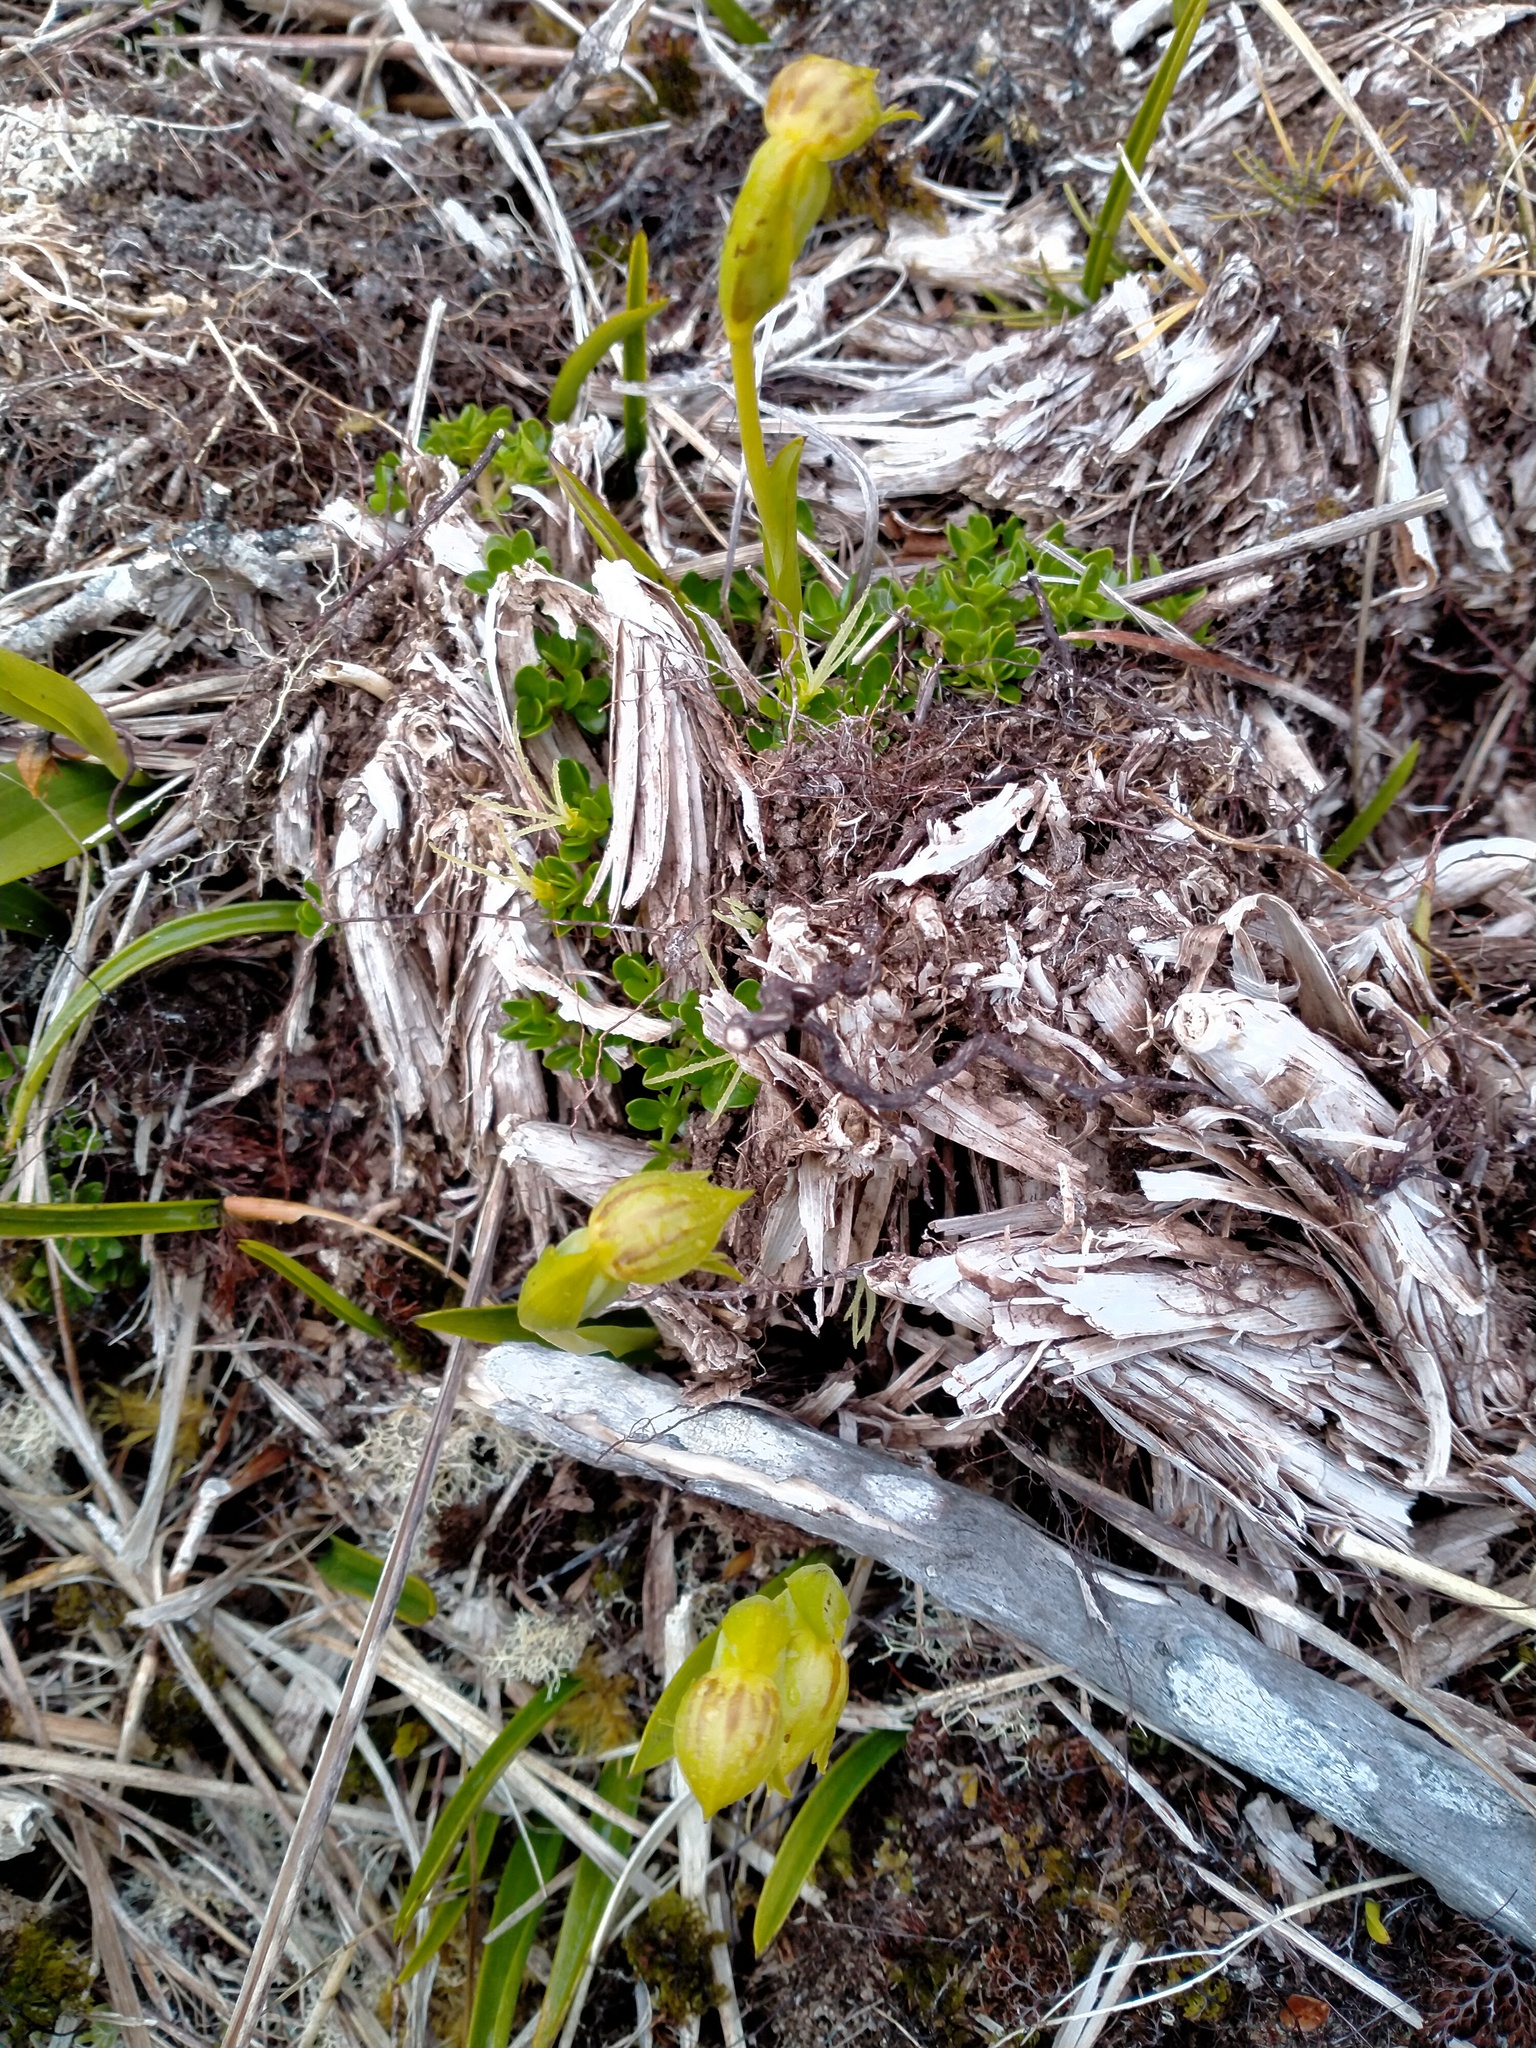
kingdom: Plantae
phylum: Tracheophyta
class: Liliopsida
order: Asparagales
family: Orchidaceae
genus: Waireia
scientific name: Waireia stenopetala
